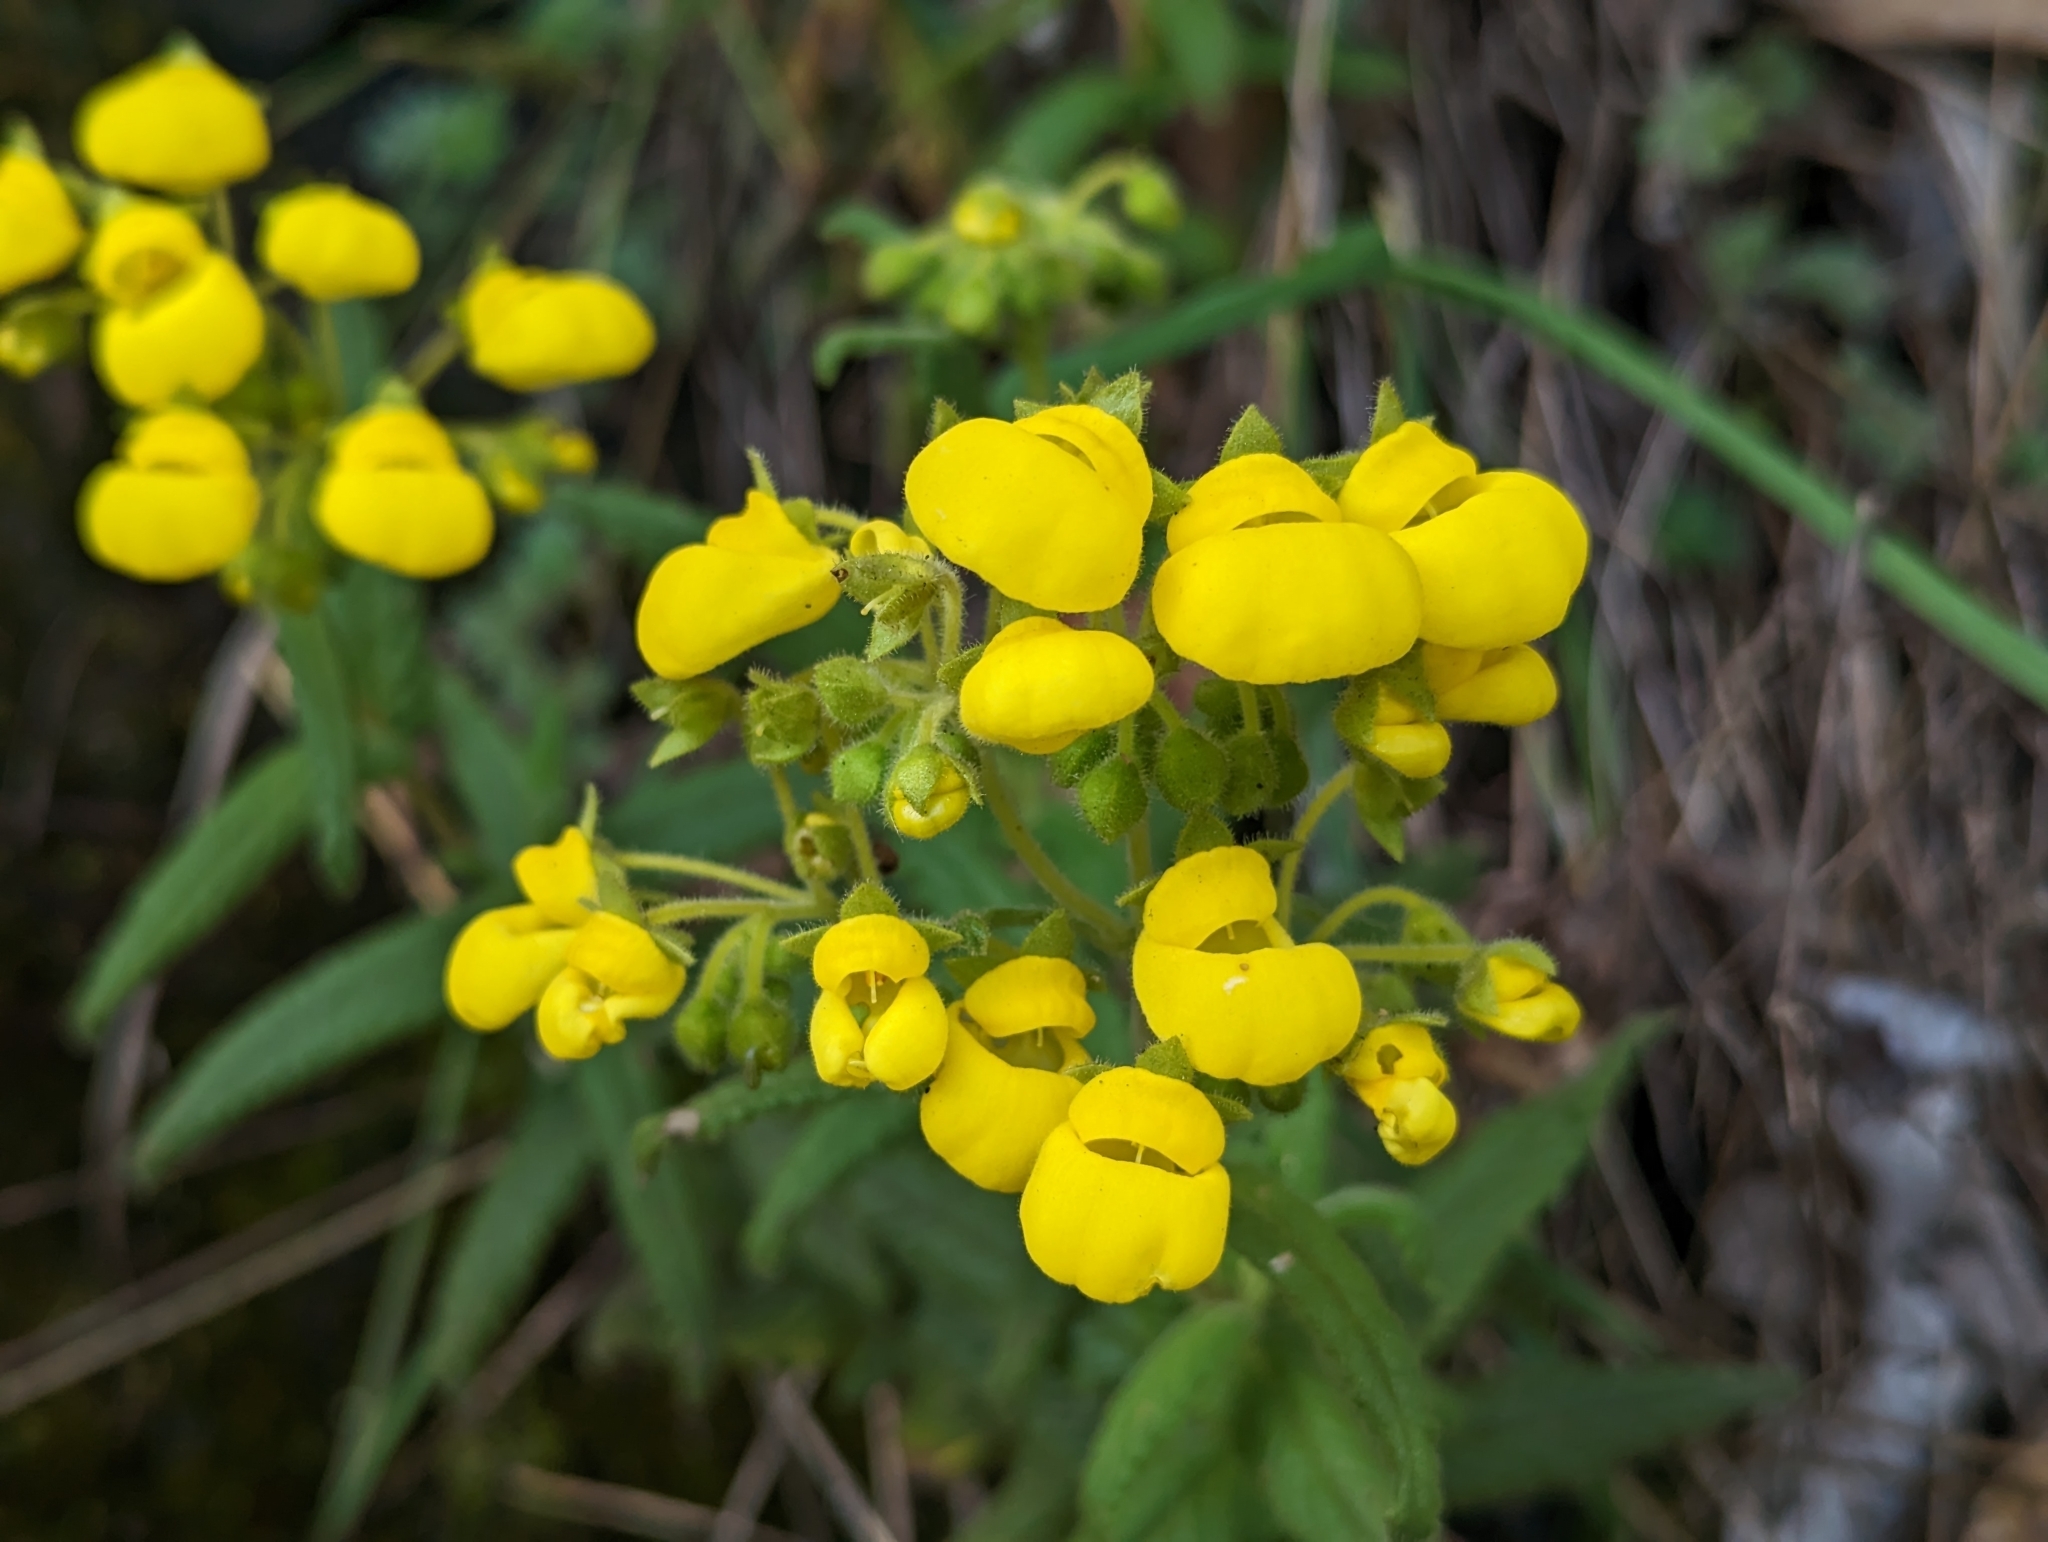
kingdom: Plantae
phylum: Tracheophyta
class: Magnoliopsida
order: Lamiales
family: Calceolariaceae
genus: Calceolaria
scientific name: Calceolaria crenata
